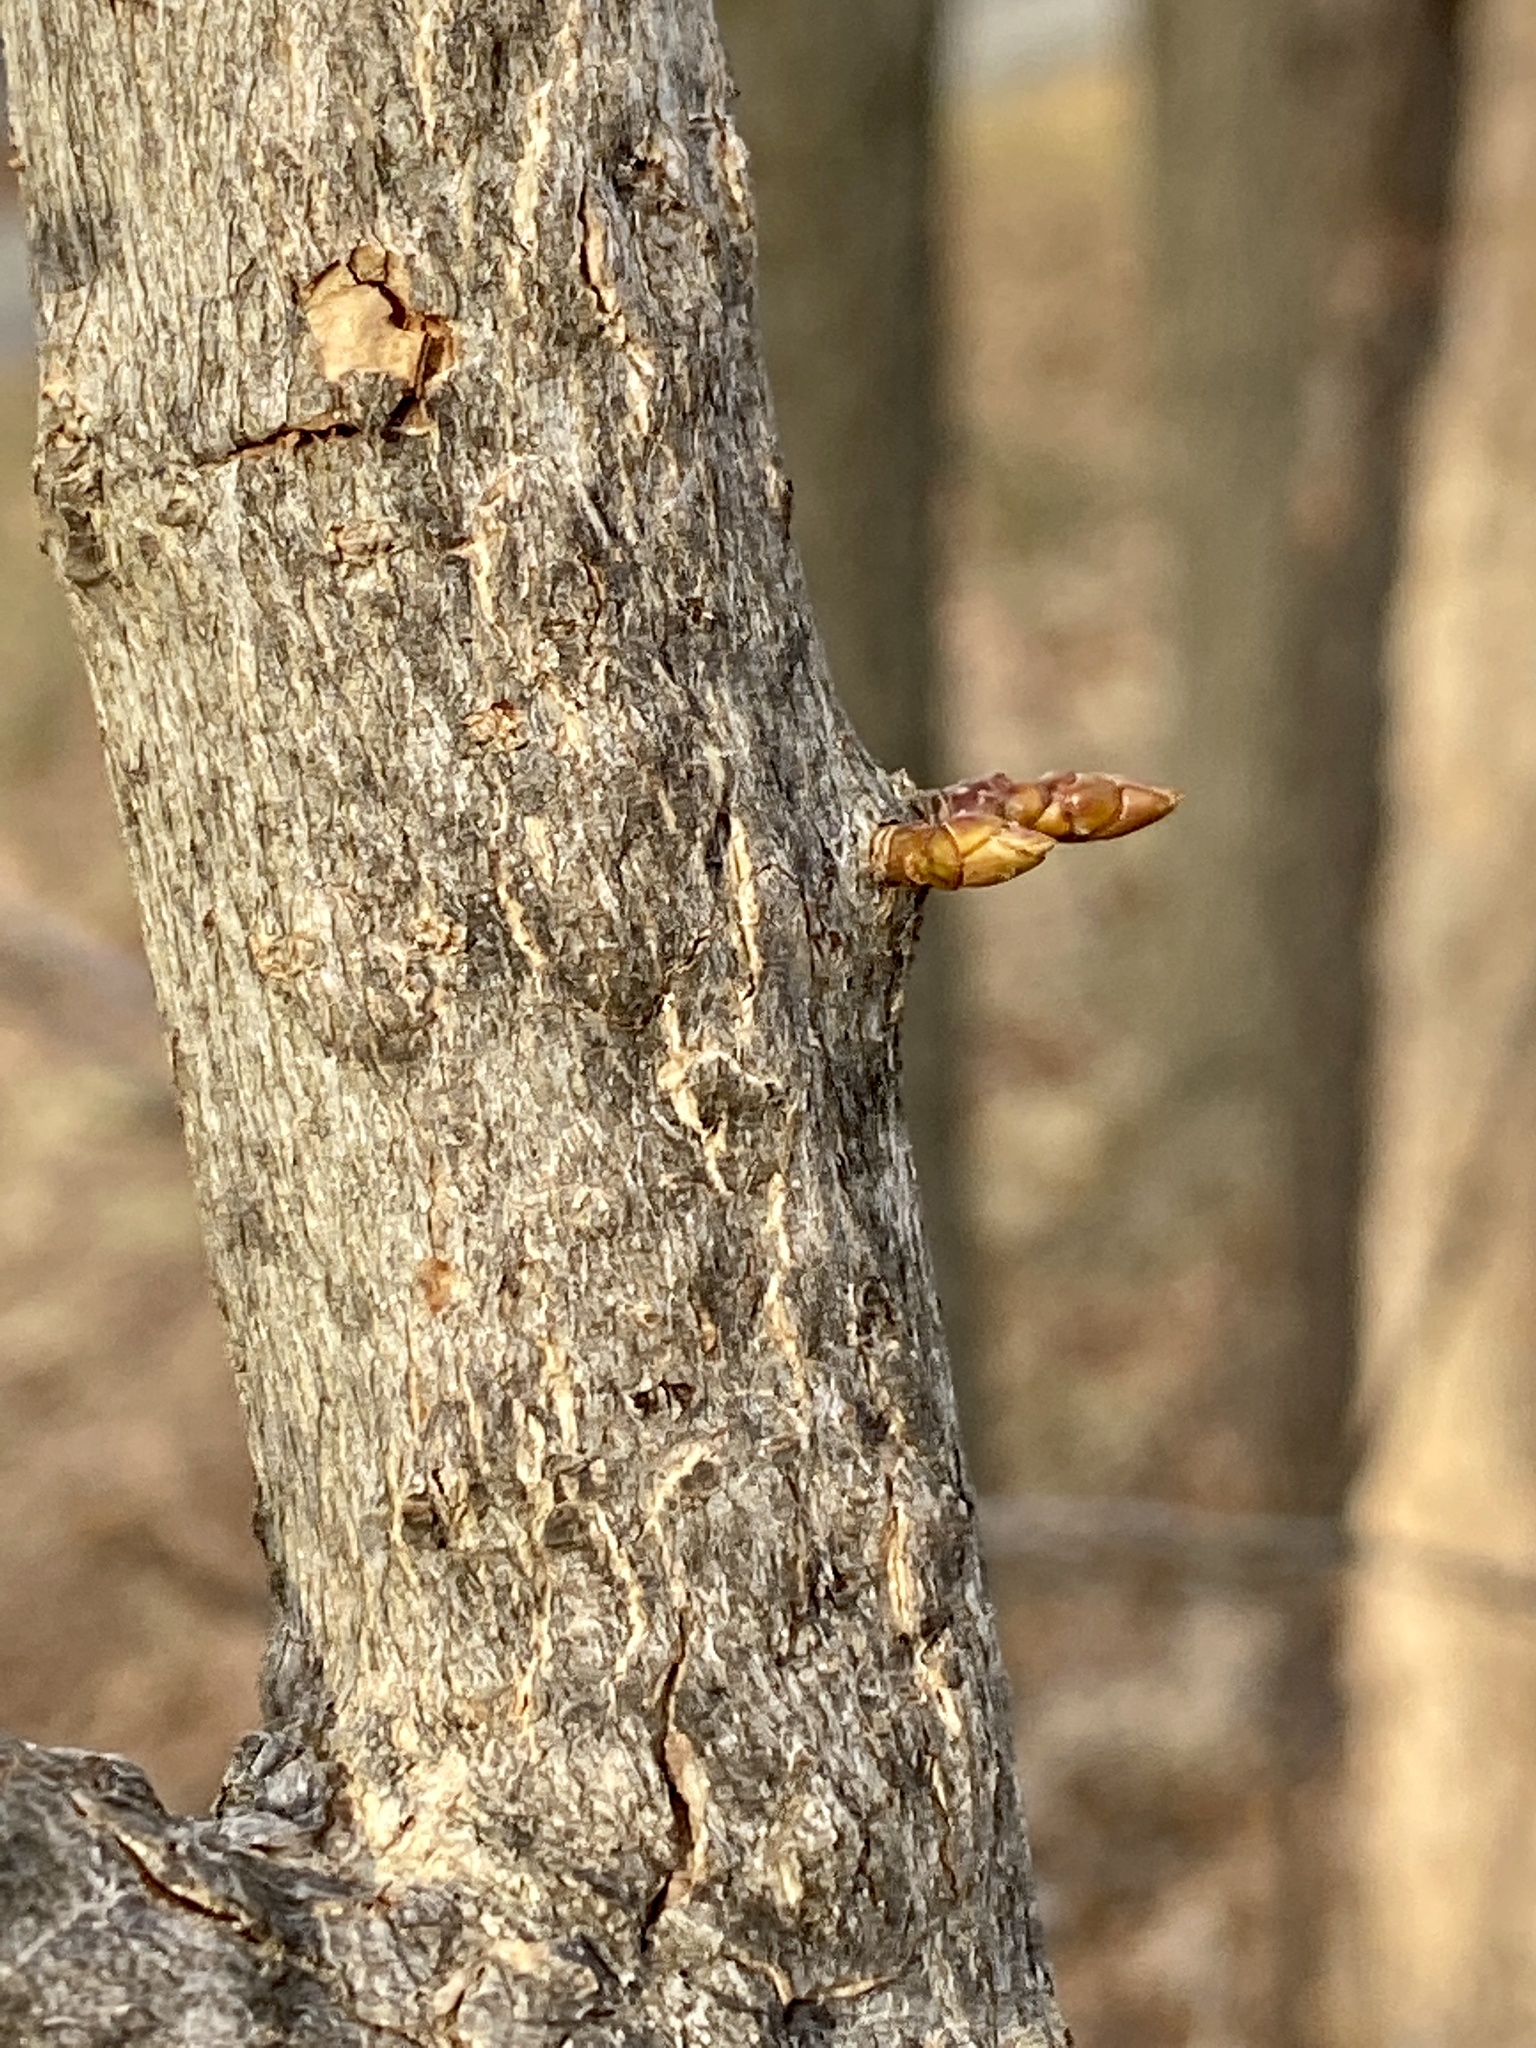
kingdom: Plantae
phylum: Tracheophyta
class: Magnoliopsida
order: Saxifragales
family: Altingiaceae
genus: Liquidambar
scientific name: Liquidambar styraciflua
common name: Sweet gum
